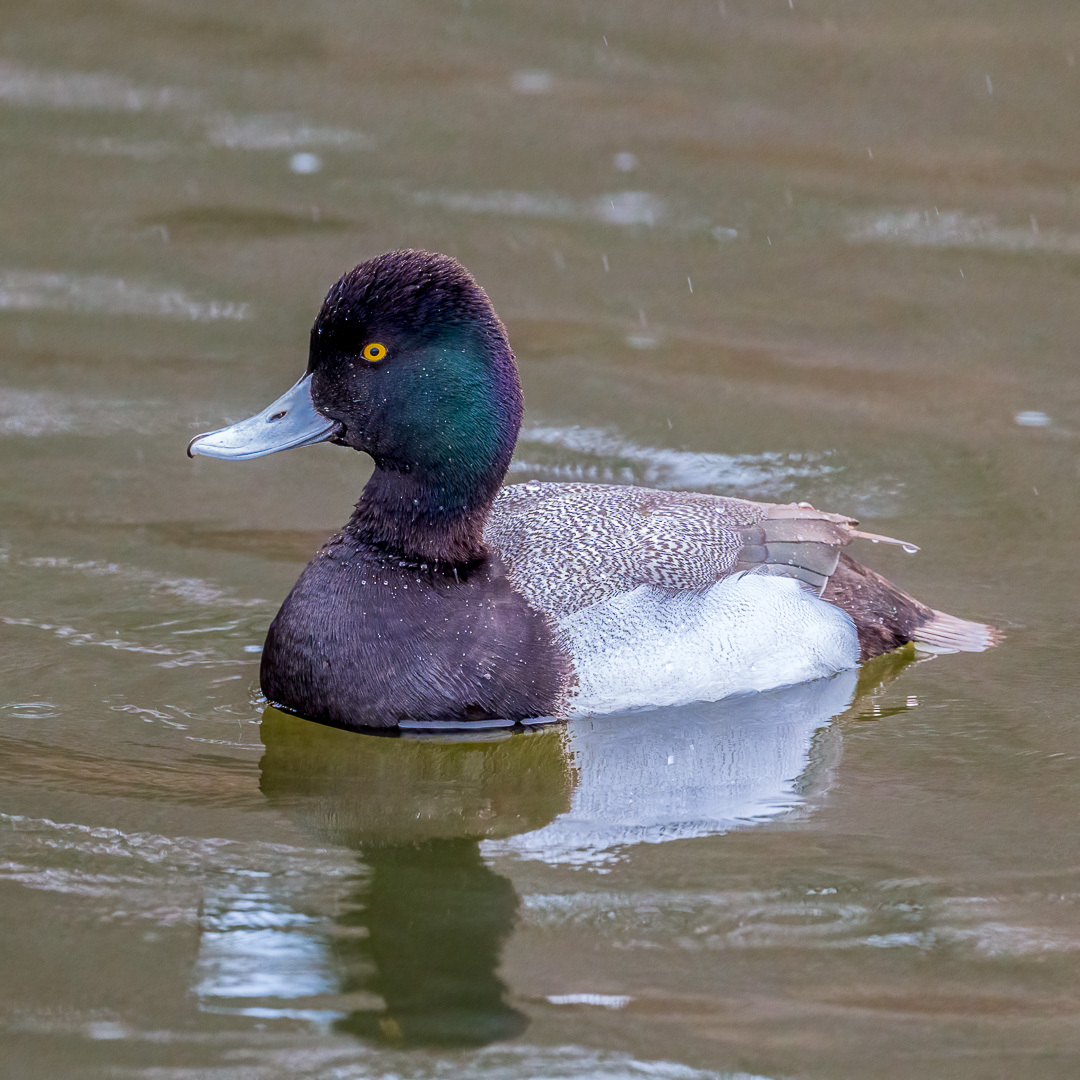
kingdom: Animalia
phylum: Chordata
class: Aves
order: Anseriformes
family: Anatidae
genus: Aythya
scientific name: Aythya affinis
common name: Lesser scaup
